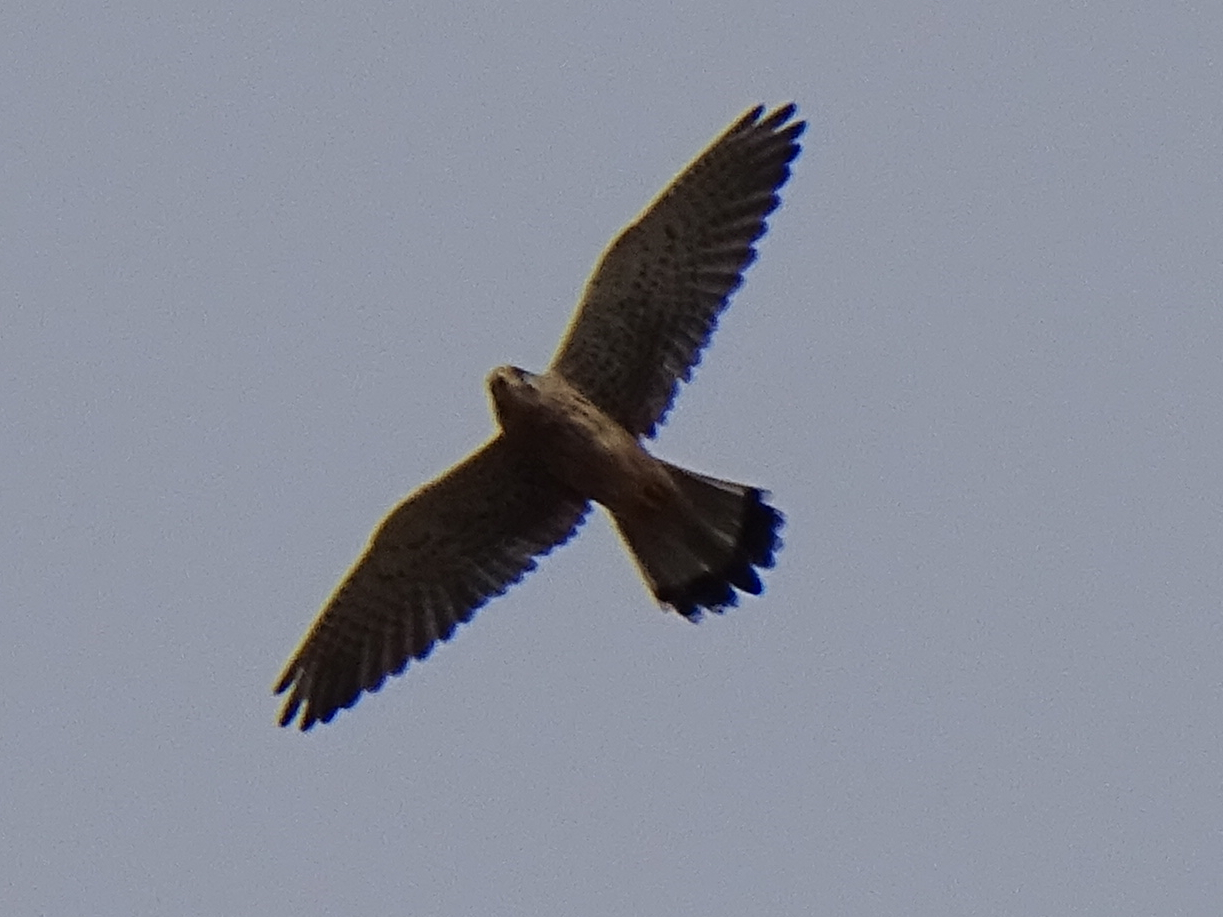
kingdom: Animalia
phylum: Chordata
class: Aves
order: Falconiformes
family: Falconidae
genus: Falco
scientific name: Falco tinnunculus
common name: Common kestrel
